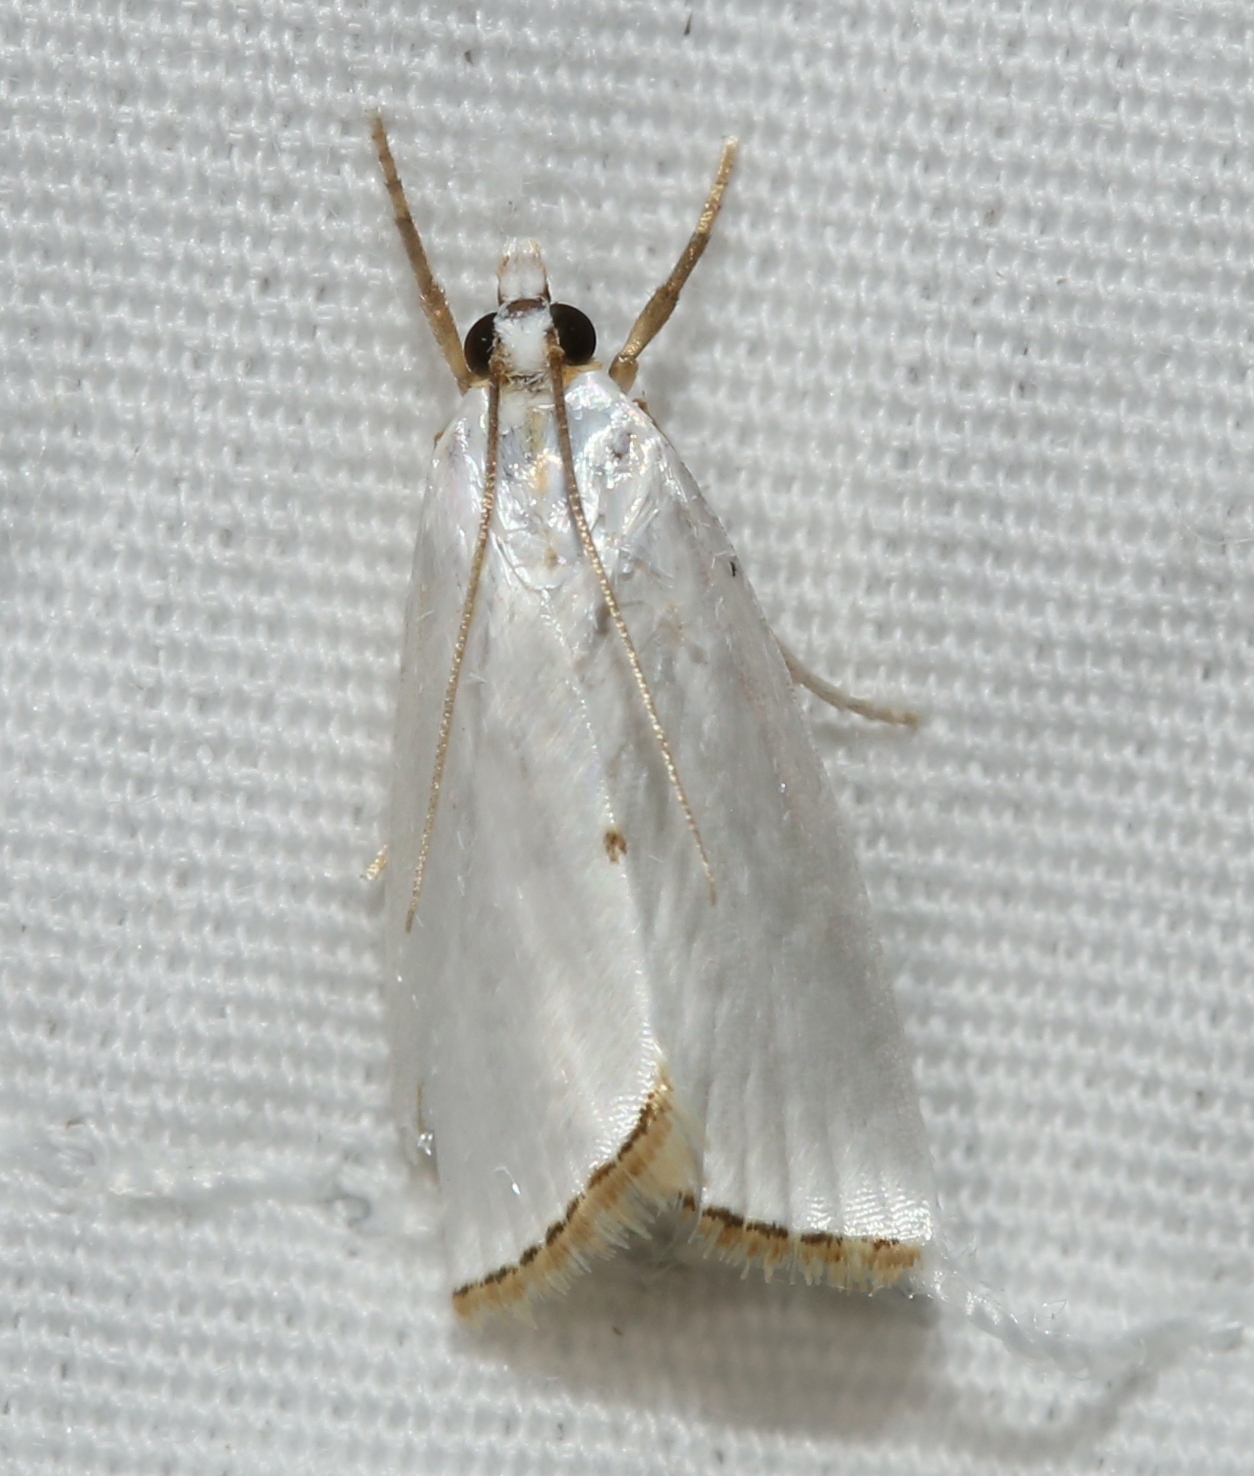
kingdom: Animalia
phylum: Arthropoda
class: Insecta
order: Lepidoptera
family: Crambidae
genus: Argyria
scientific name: Argyria nivalis
